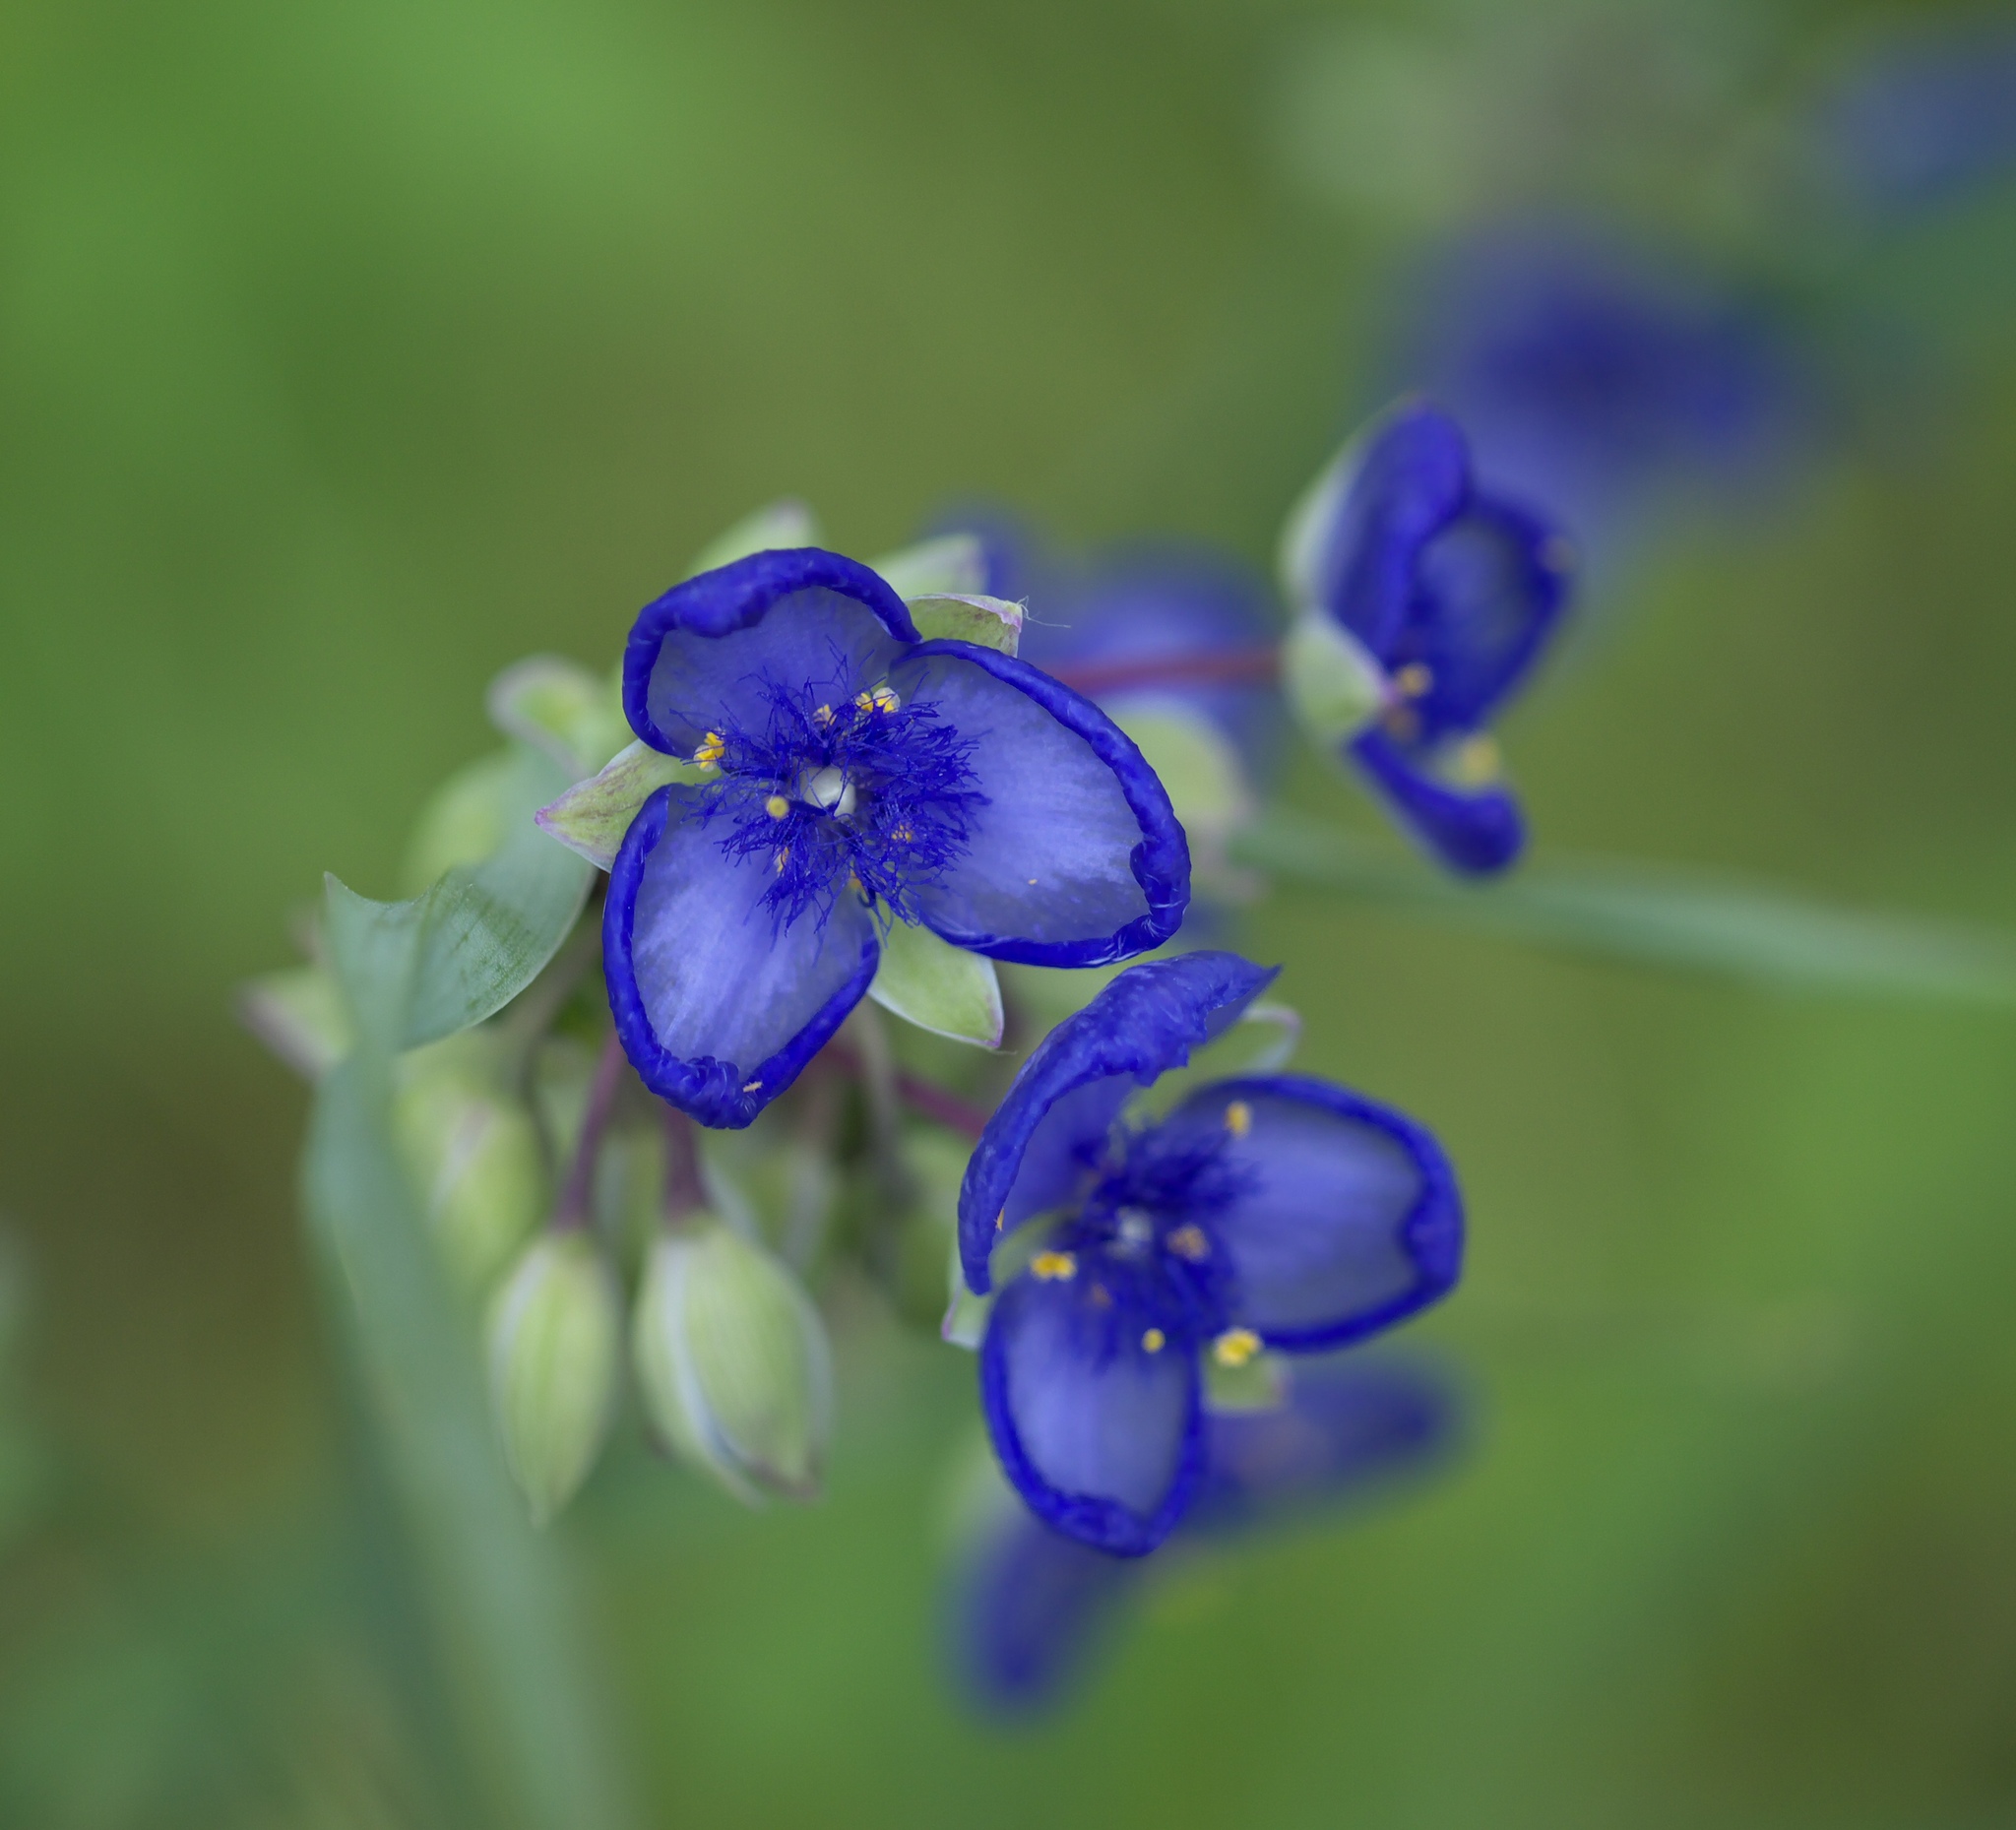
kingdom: Plantae
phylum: Tracheophyta
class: Liliopsida
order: Commelinales
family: Commelinaceae
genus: Tradescantia
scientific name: Tradescantia ohiensis
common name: Ohio spiderwort
